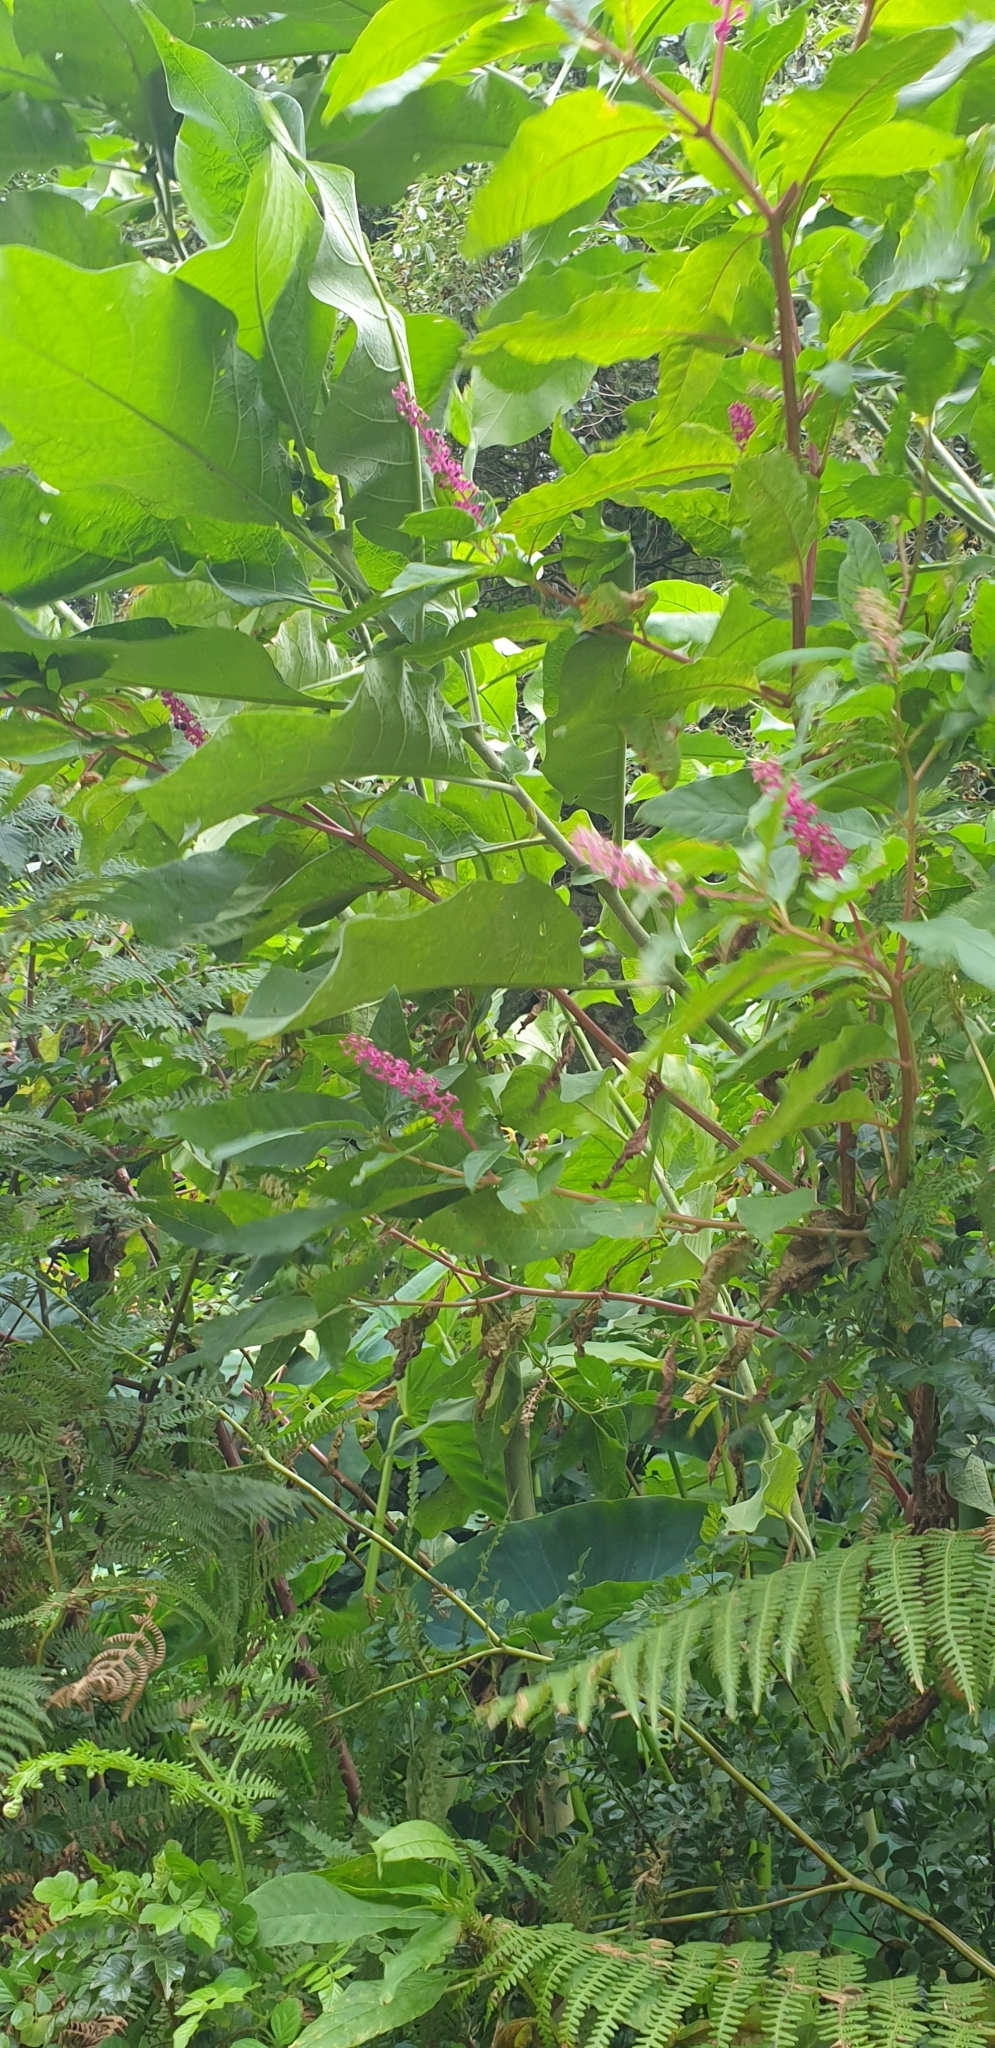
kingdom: Plantae
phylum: Tracheophyta
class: Magnoliopsida
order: Caryophyllales
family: Phytolaccaceae
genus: Phytolacca
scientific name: Phytolacca americana
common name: American pokeweed
